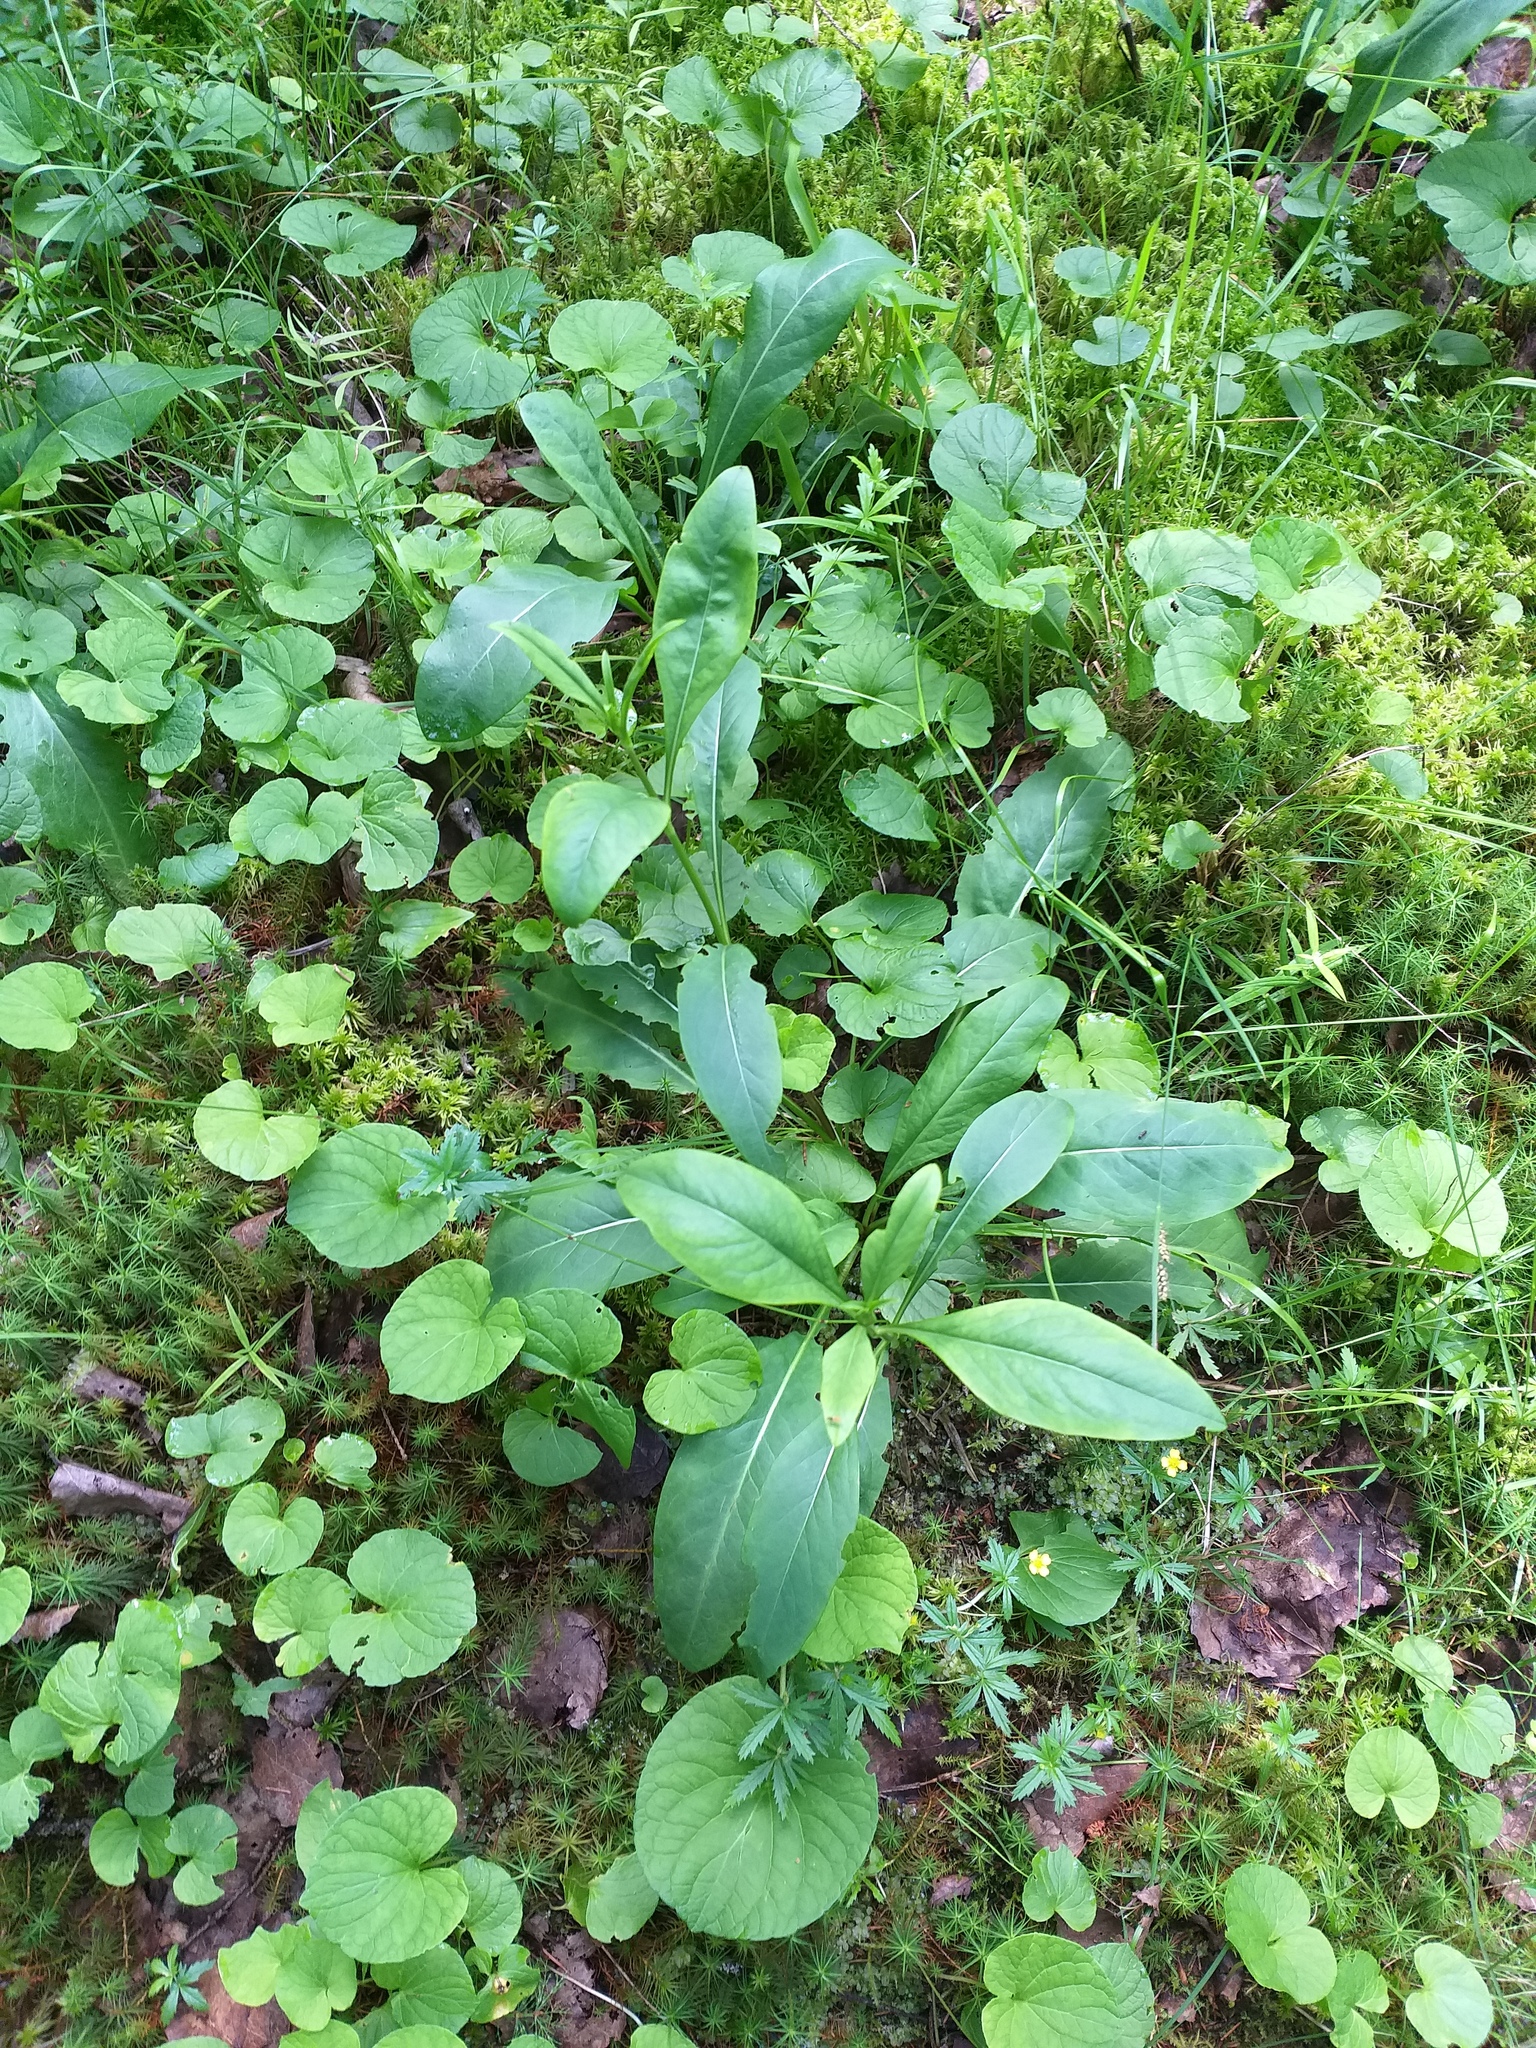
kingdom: Plantae
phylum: Tracheophyta
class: Magnoliopsida
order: Dipsacales
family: Caprifoliaceae
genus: Succisa
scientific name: Succisa pratensis
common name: Devil's-bit
